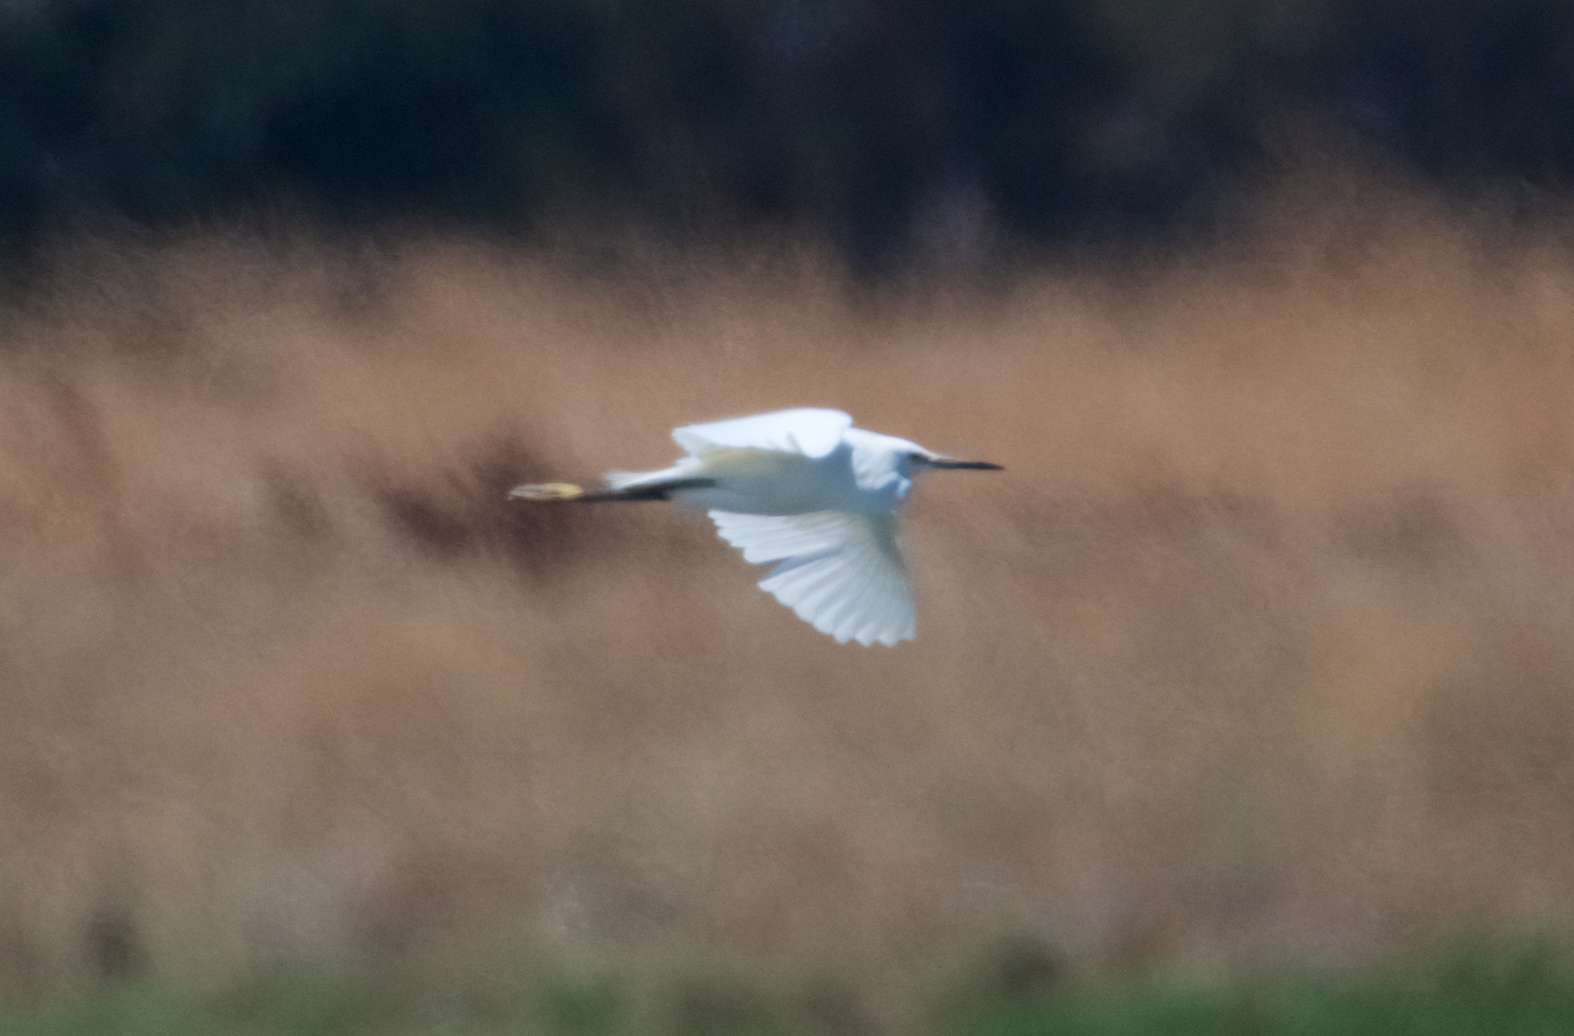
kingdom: Animalia
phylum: Chordata
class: Aves
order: Pelecaniformes
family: Ardeidae
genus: Egretta
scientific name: Egretta thula
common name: Snowy egret
